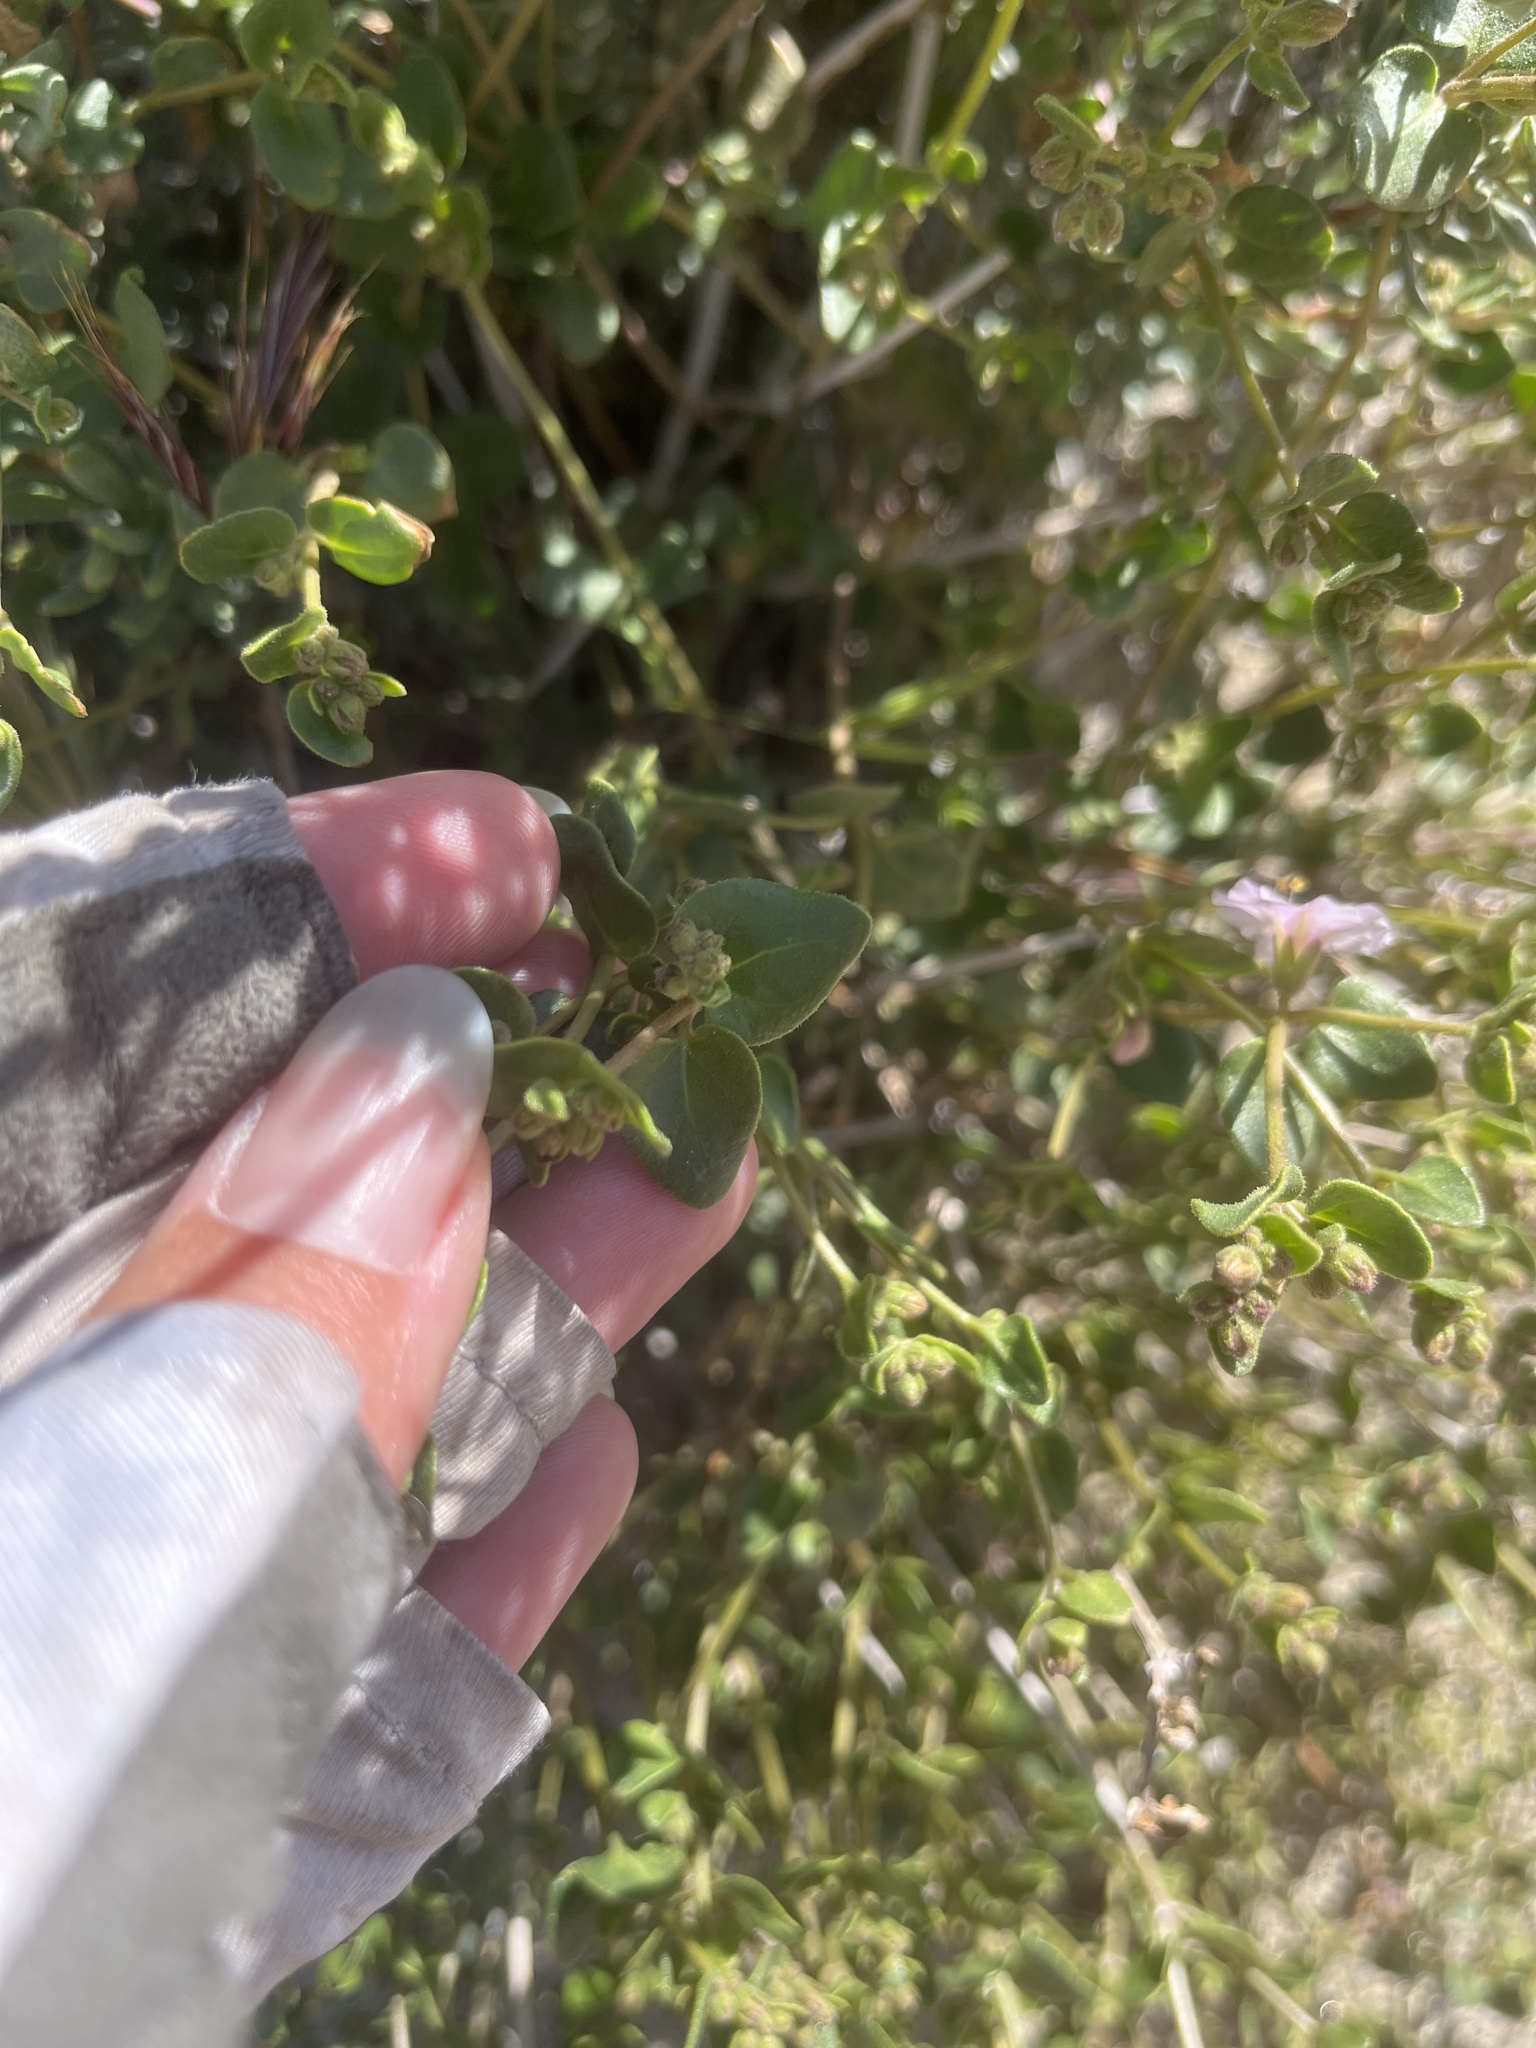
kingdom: Plantae
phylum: Tracheophyta
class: Magnoliopsida
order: Caryophyllales
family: Nyctaginaceae
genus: Mirabilis
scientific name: Mirabilis laevis
